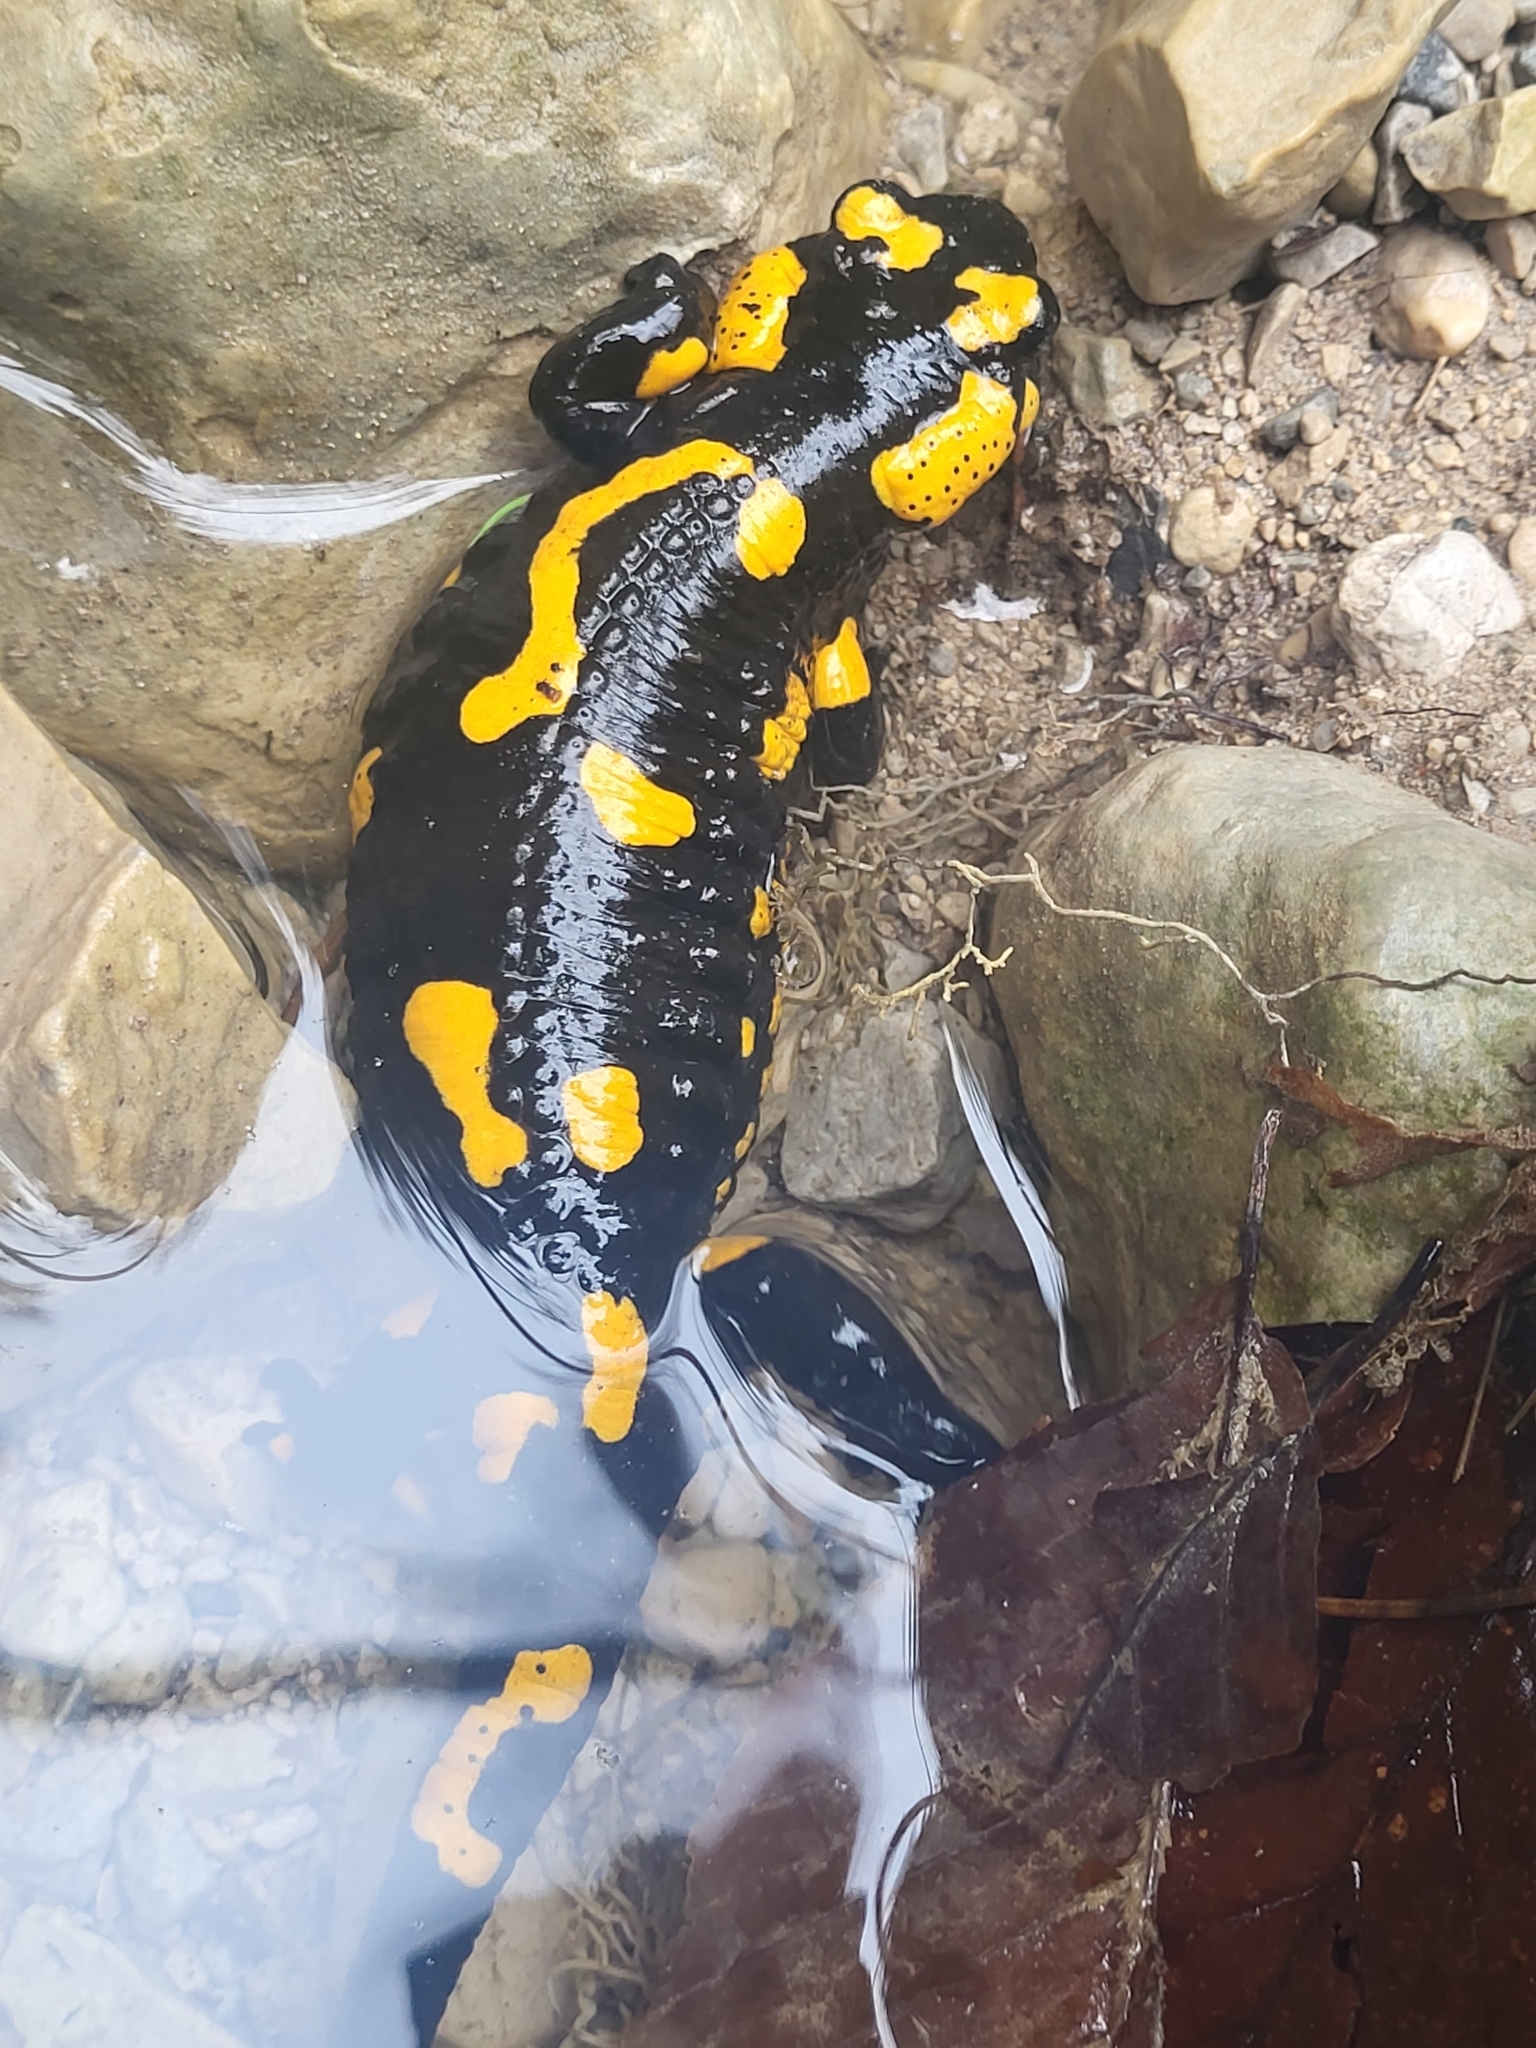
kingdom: Animalia
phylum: Chordata
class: Amphibia
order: Caudata
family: Salamandridae
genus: Salamandra
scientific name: Salamandra salamandra
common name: Fire salamander
